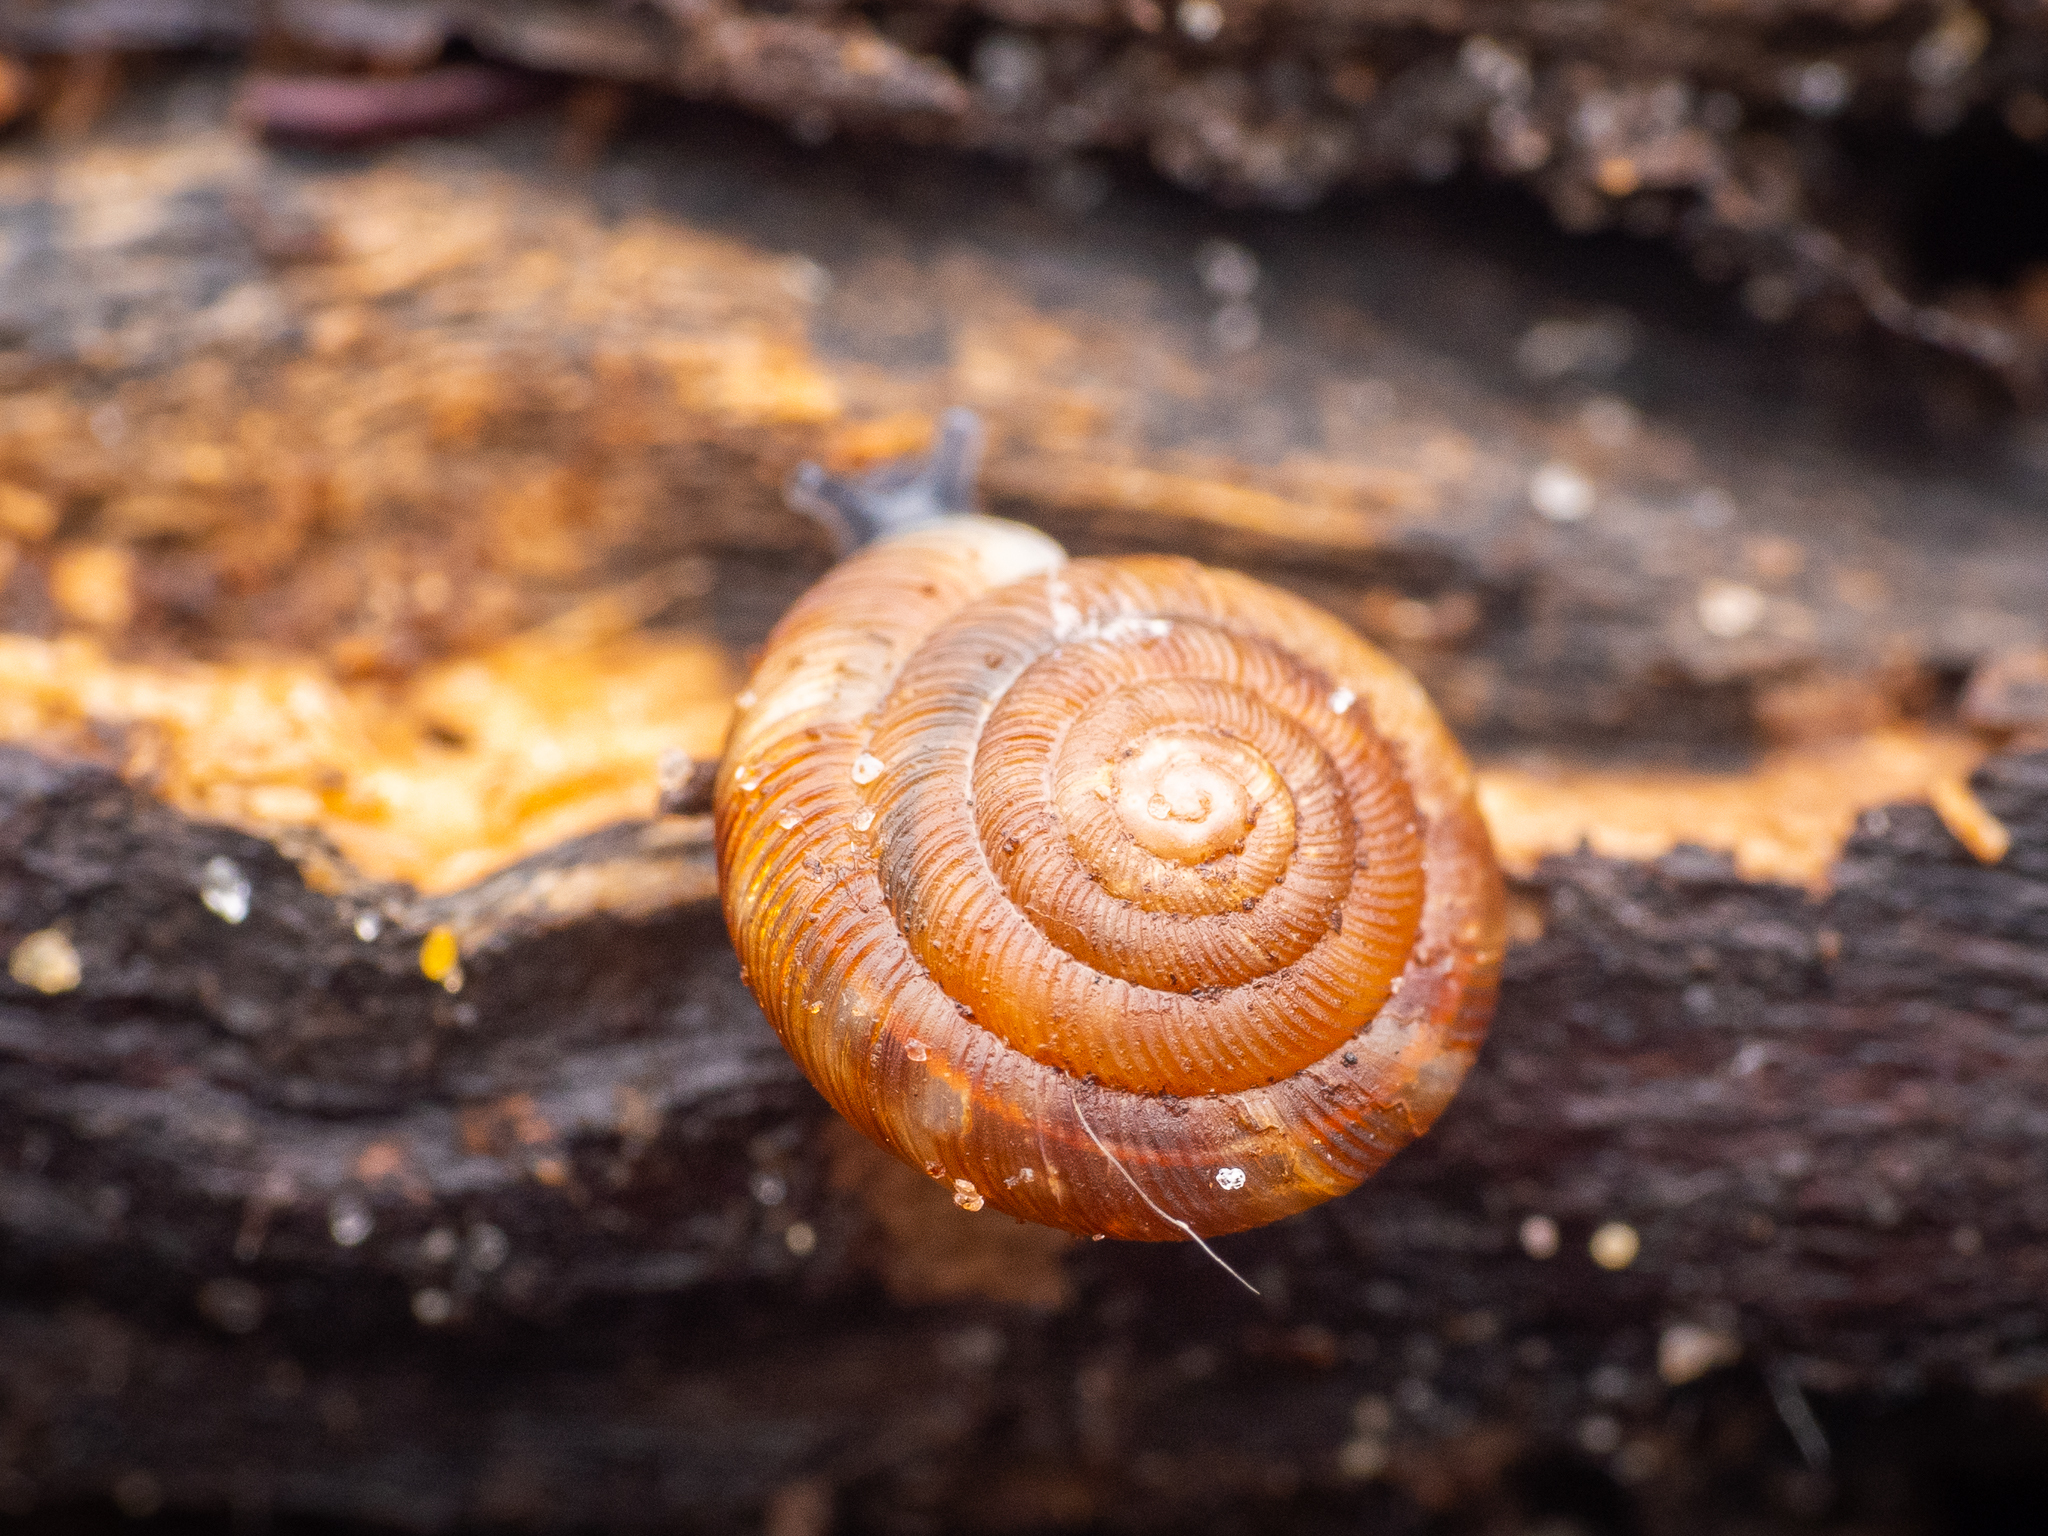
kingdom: Animalia
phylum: Mollusca
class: Gastropoda
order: Stylommatophora
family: Discidae
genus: Discus
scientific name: Discus rotundatus
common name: Rounded snail
